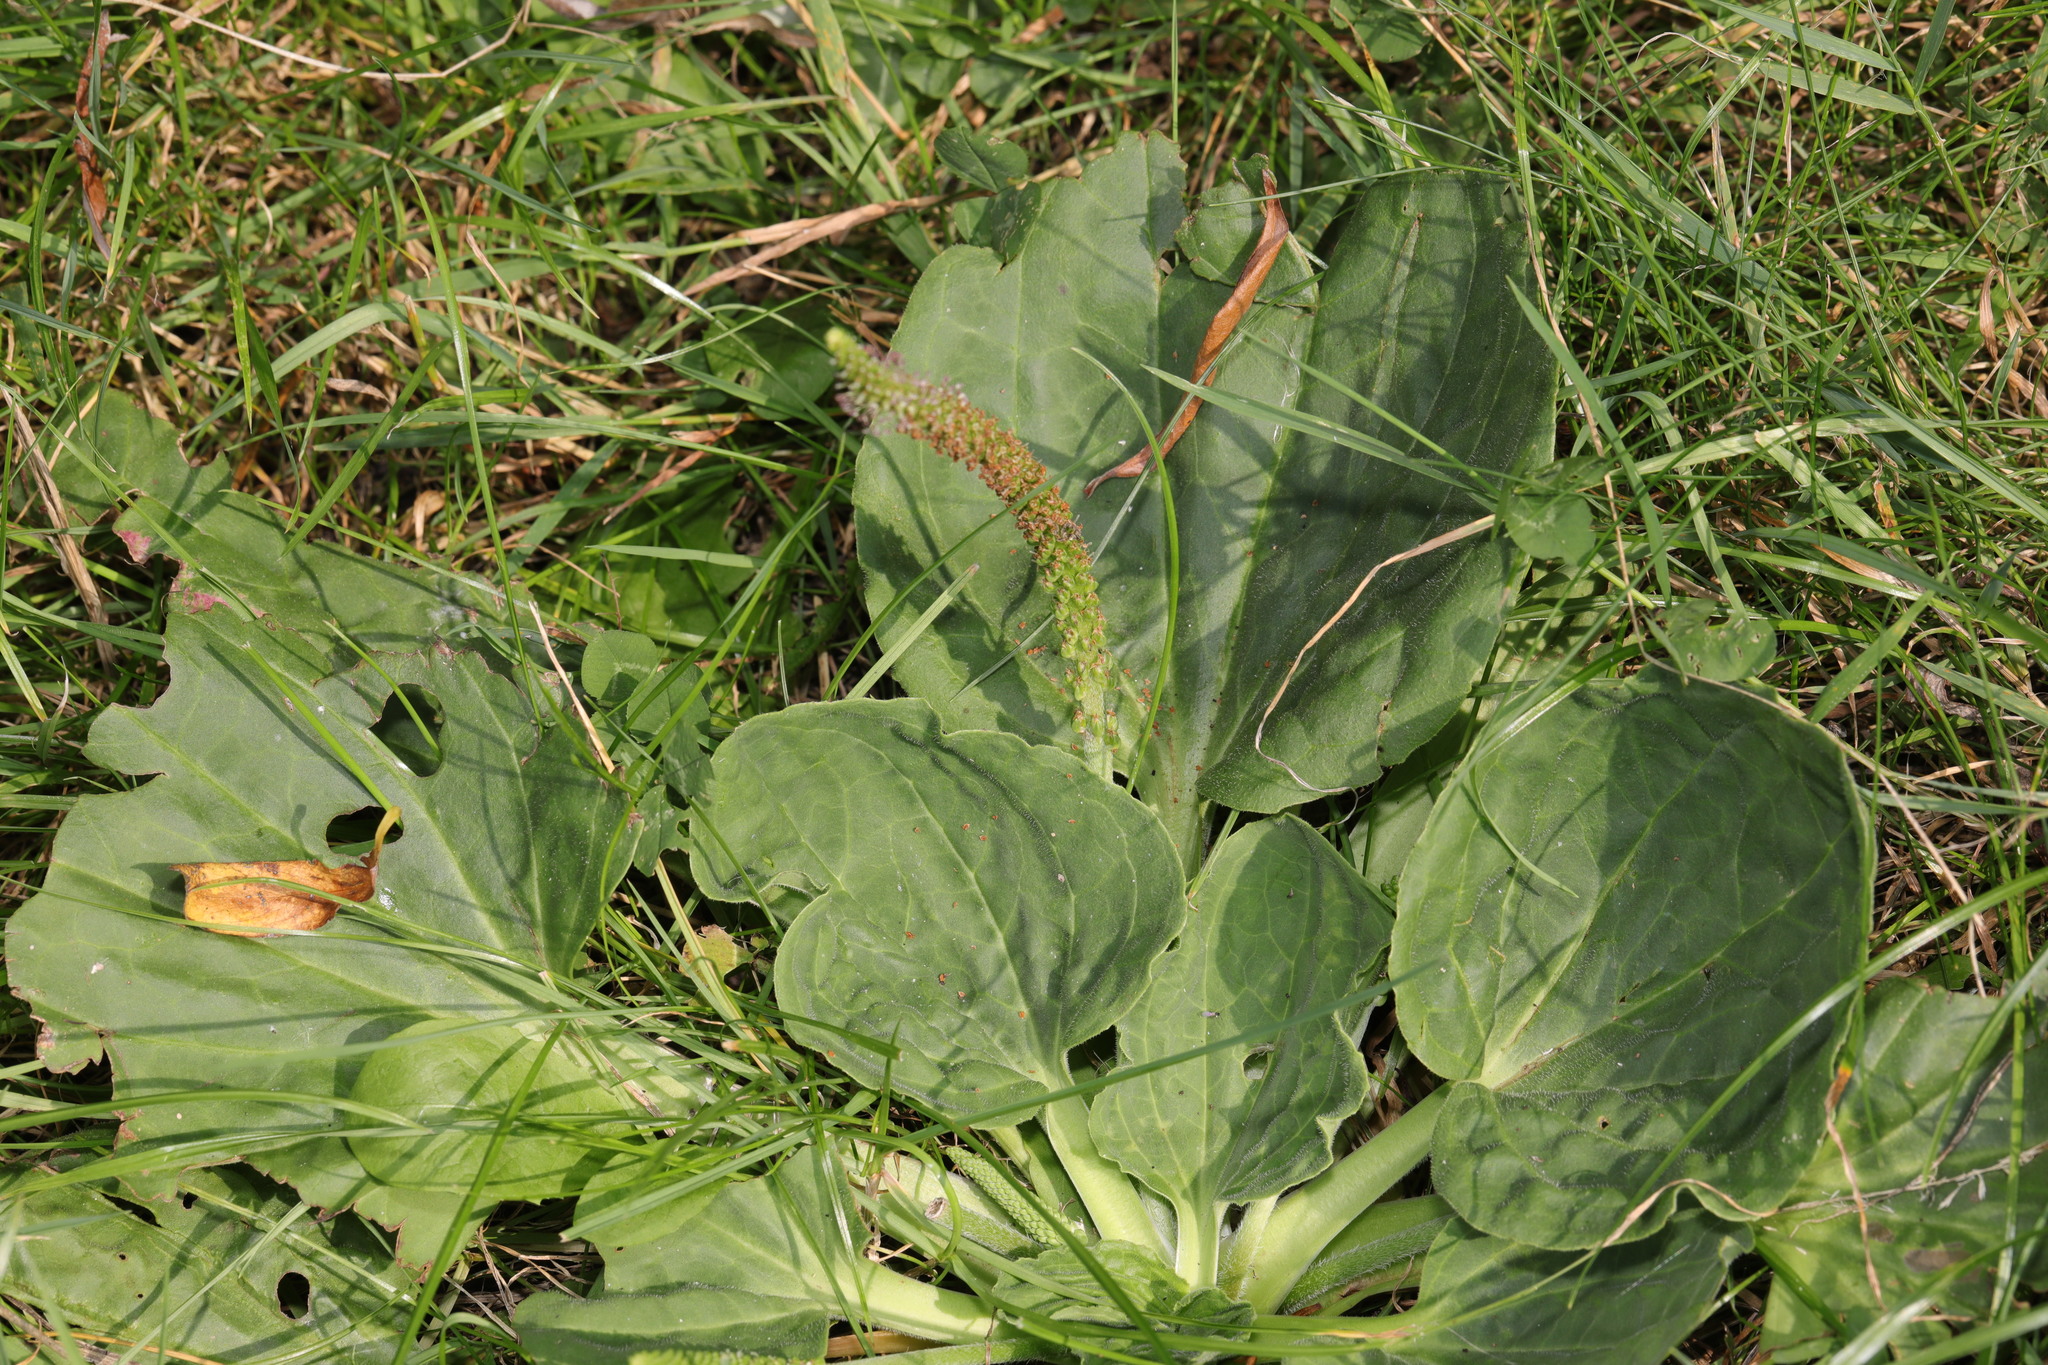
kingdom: Plantae
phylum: Tracheophyta
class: Magnoliopsida
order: Lamiales
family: Plantaginaceae
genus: Plantago
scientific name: Plantago major
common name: Common plantain
